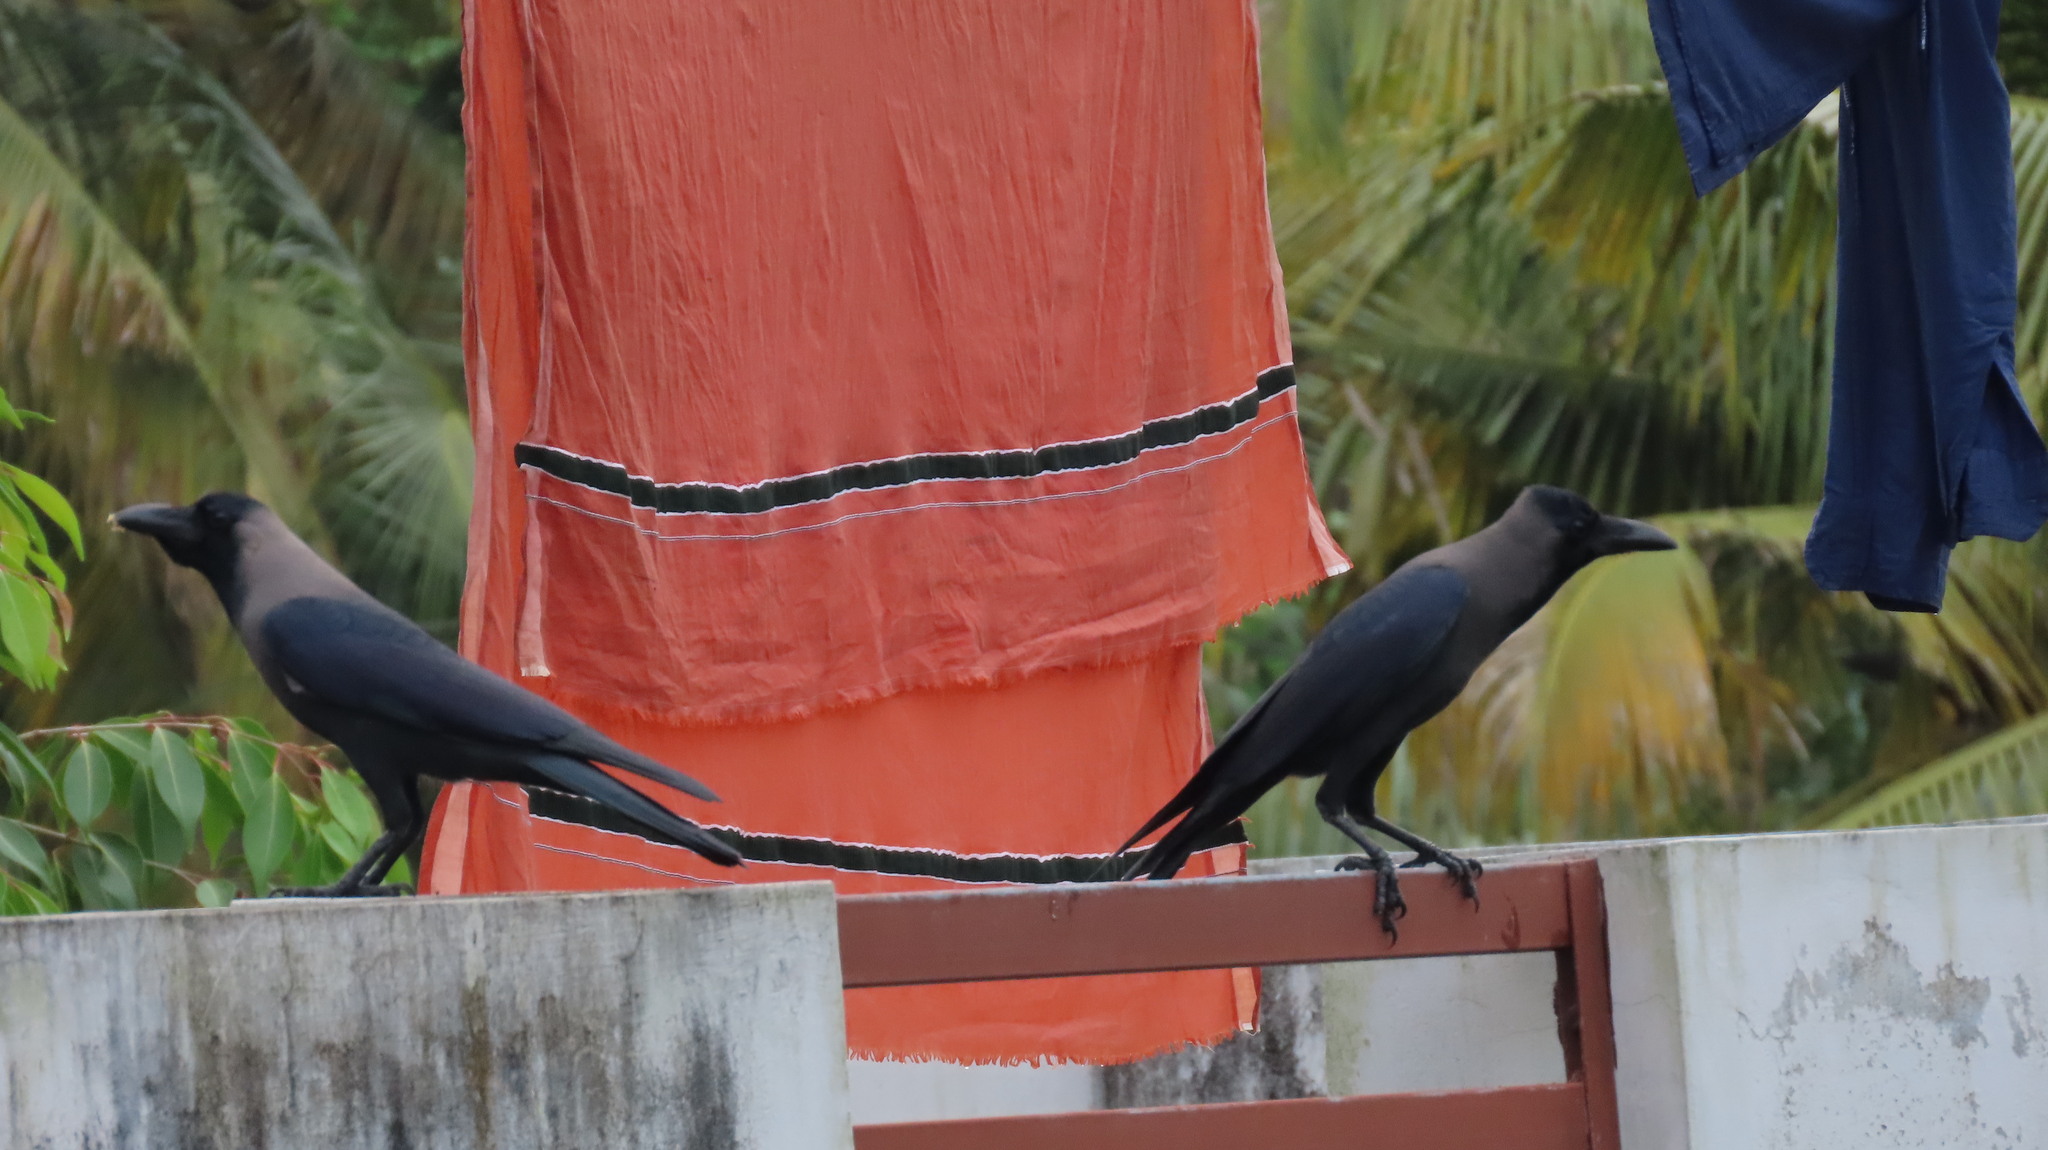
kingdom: Animalia
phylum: Chordata
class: Aves
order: Passeriformes
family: Corvidae
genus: Corvus
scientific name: Corvus splendens
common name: House crow
